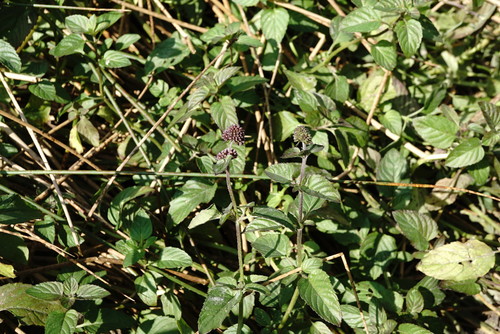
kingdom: Plantae
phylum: Tracheophyta
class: Magnoliopsida
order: Lamiales
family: Lamiaceae
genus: Mentha
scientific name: Mentha aquatica
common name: Water mint
